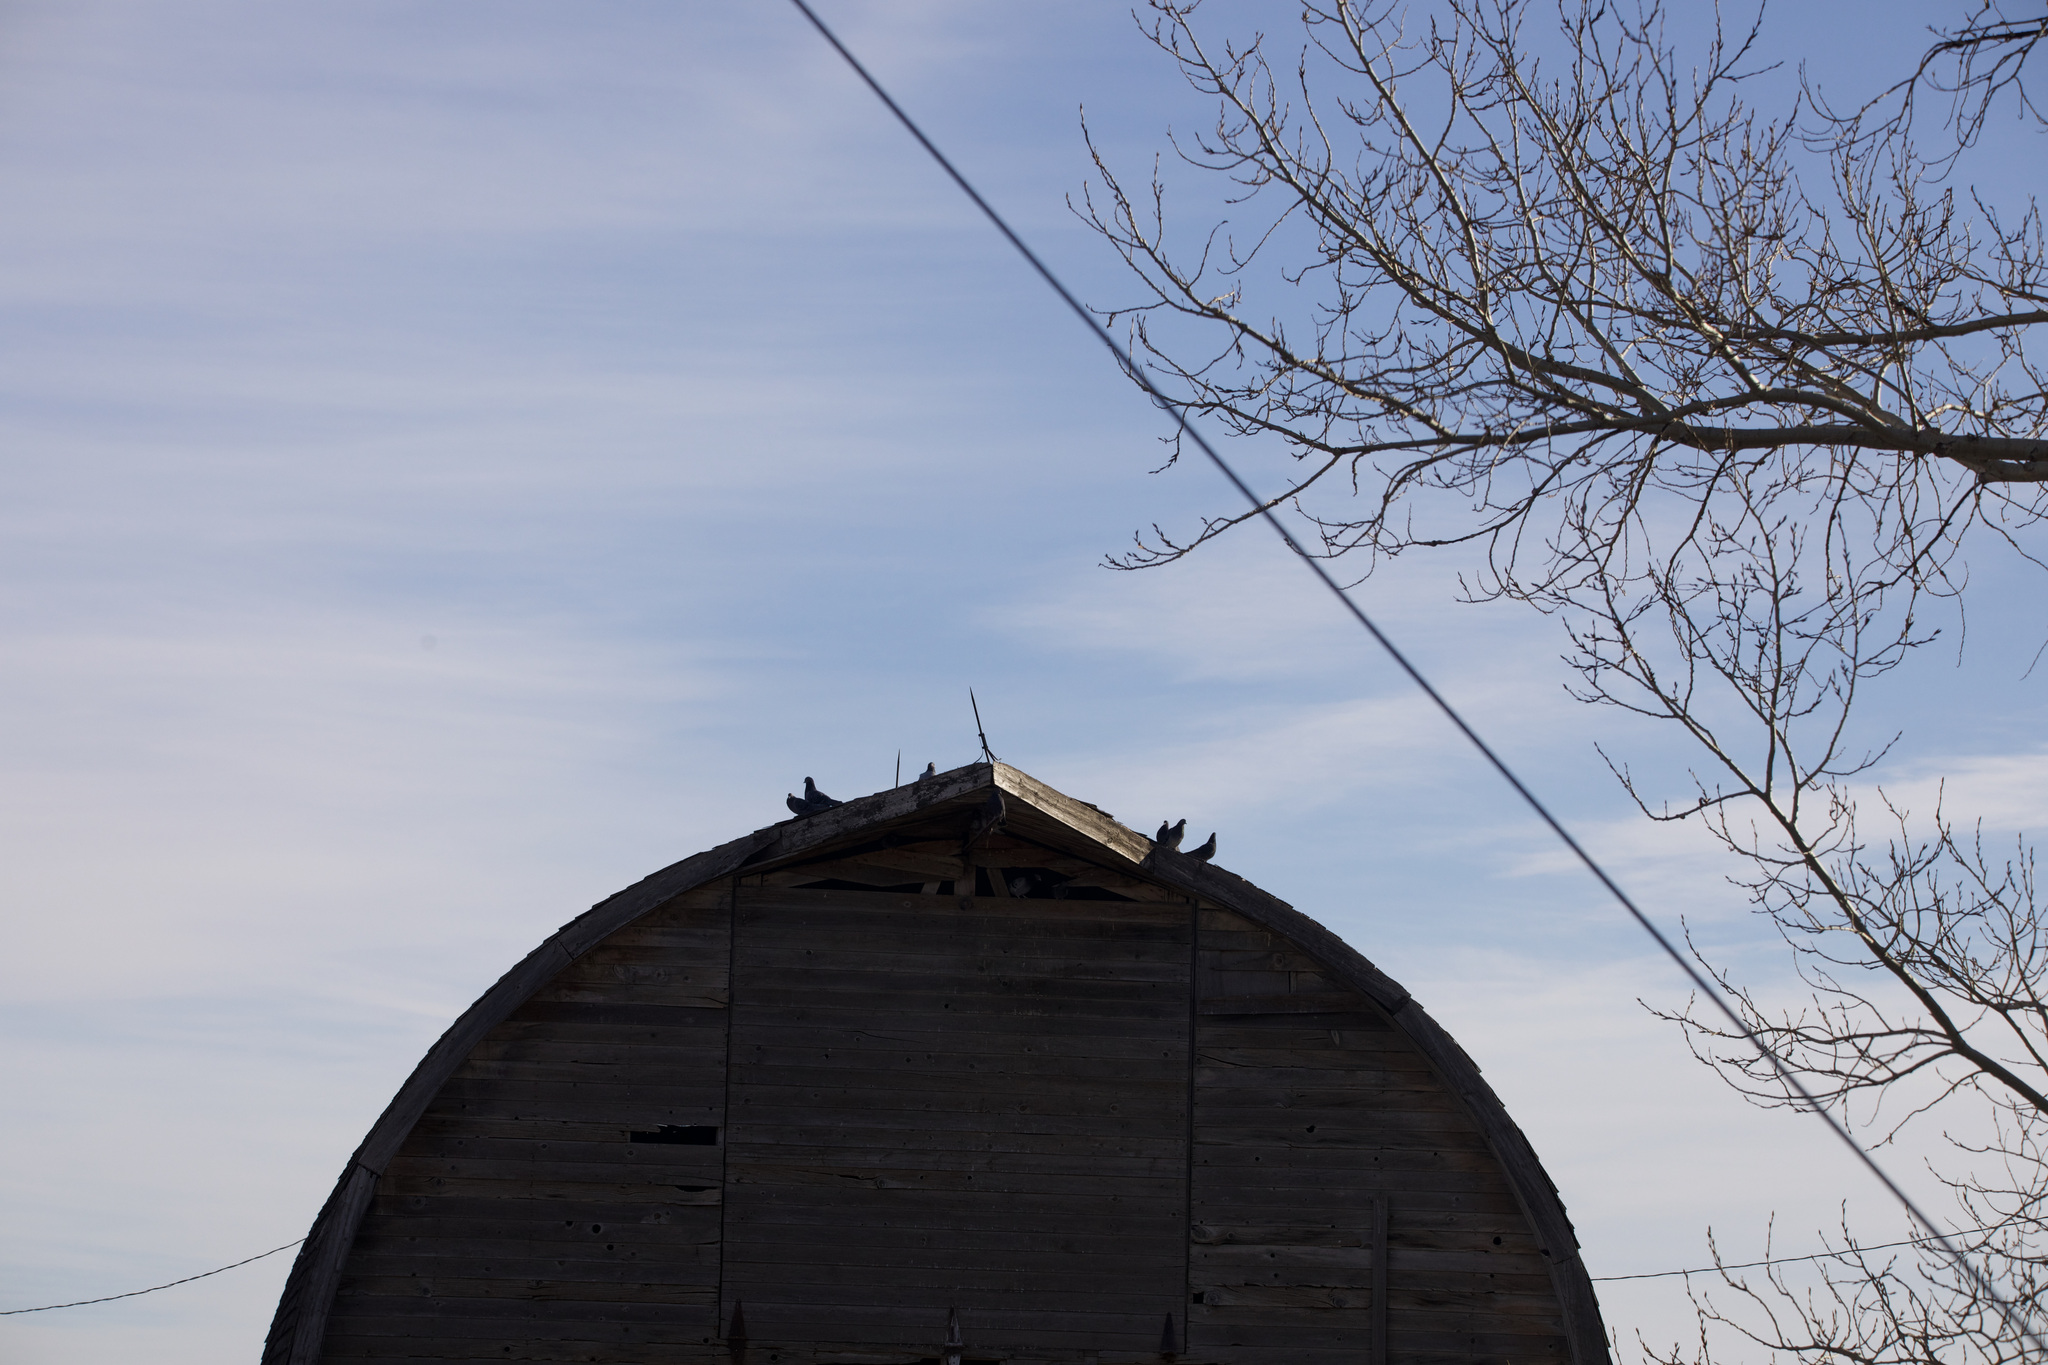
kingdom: Animalia
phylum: Chordata
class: Aves
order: Columbiformes
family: Columbidae
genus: Columba
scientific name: Columba livia
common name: Rock pigeon
